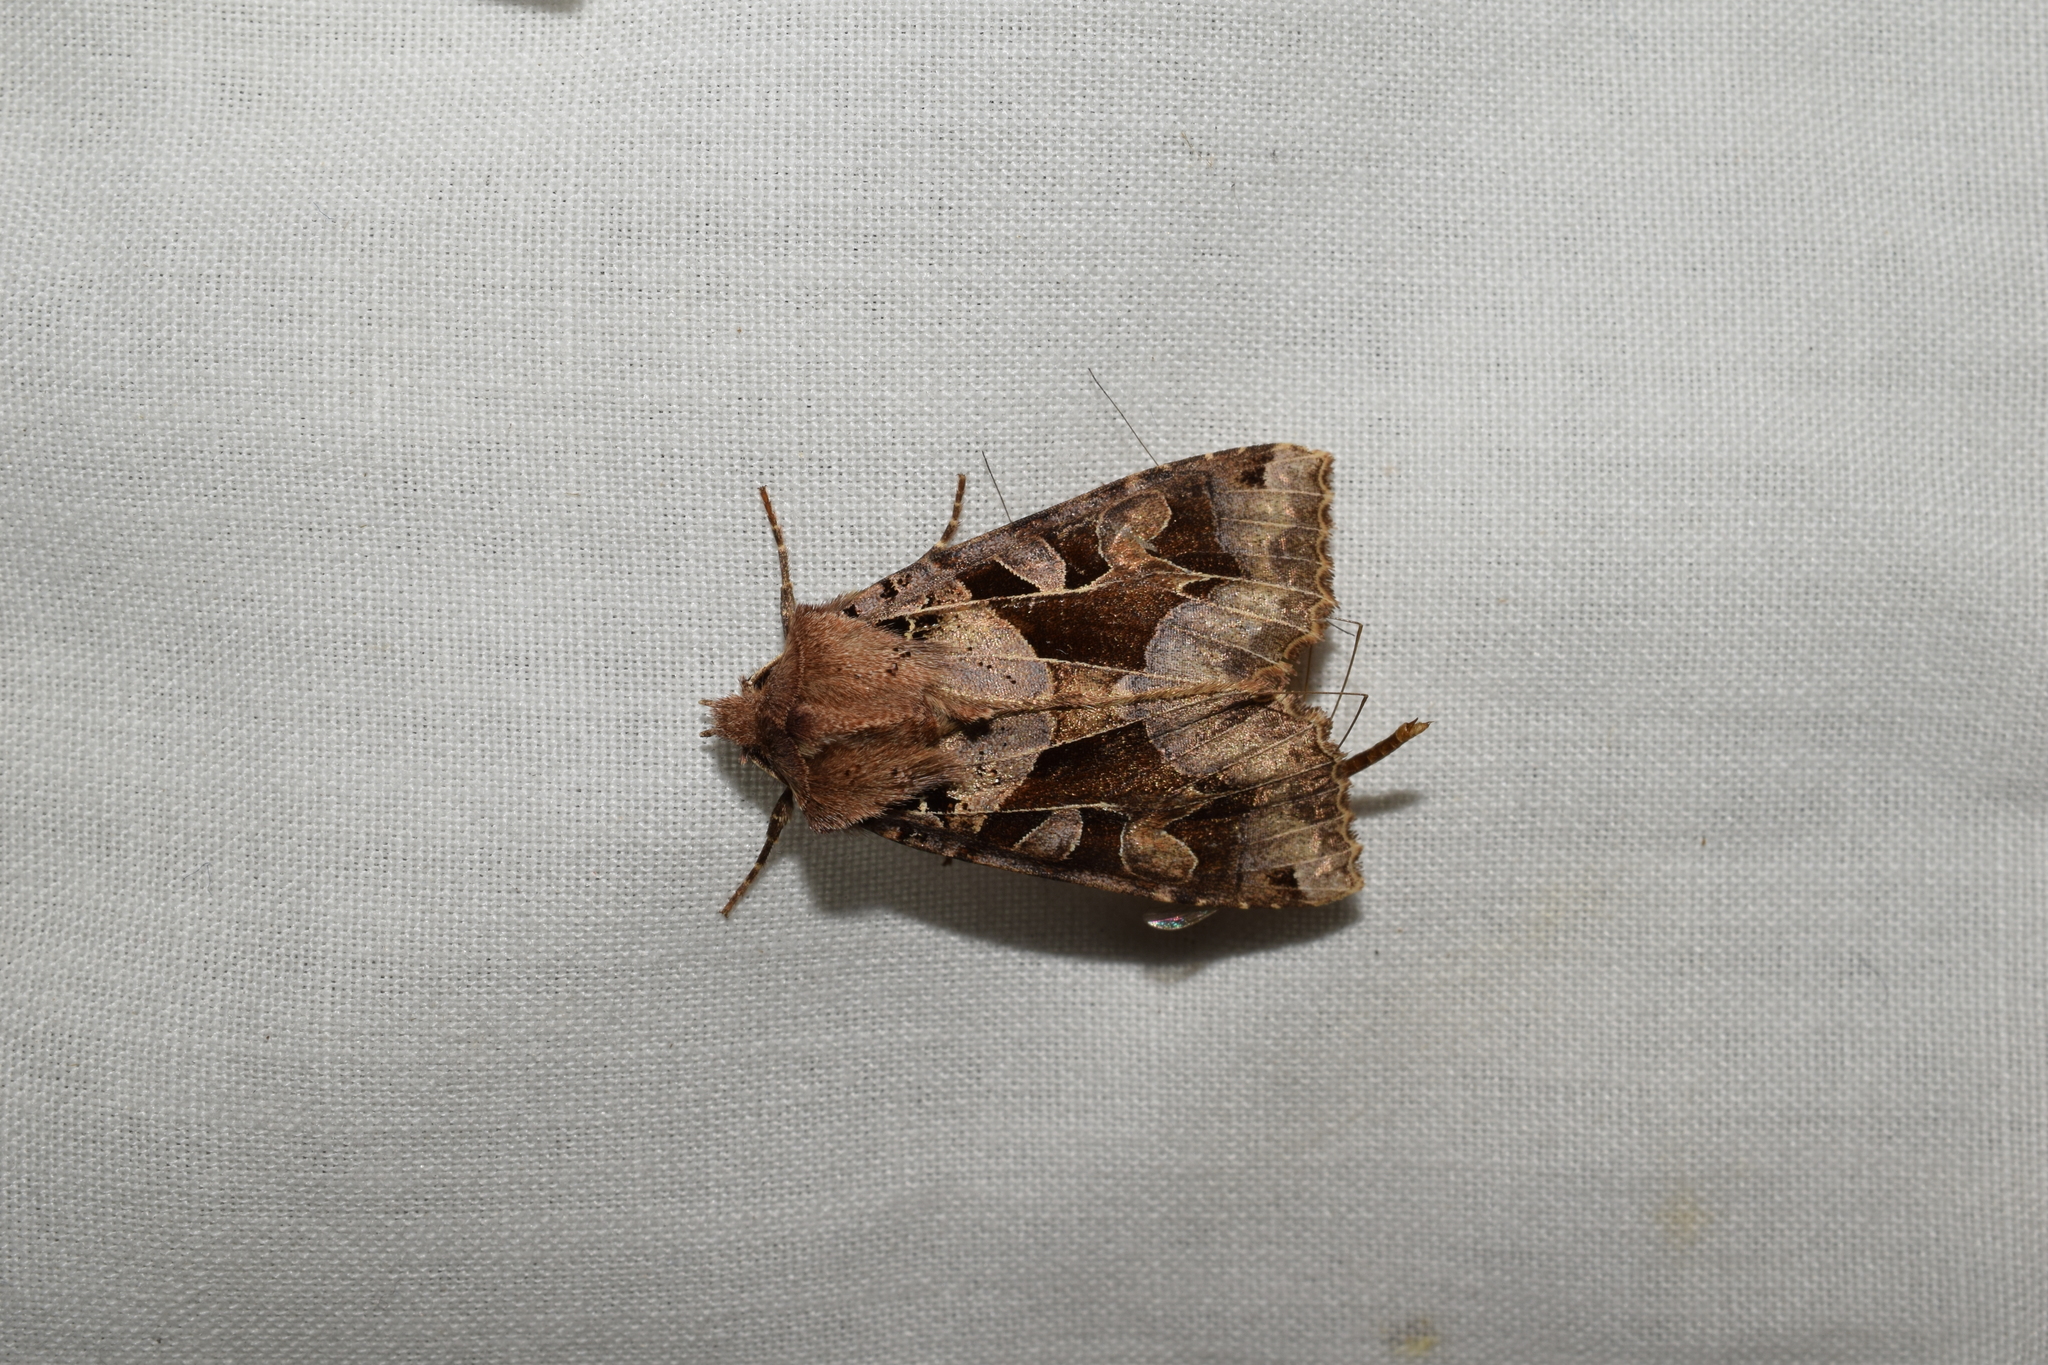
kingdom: Animalia
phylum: Arthropoda
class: Insecta
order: Lepidoptera
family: Noctuidae
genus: Clavipalpula
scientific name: Clavipalpula aurariae
